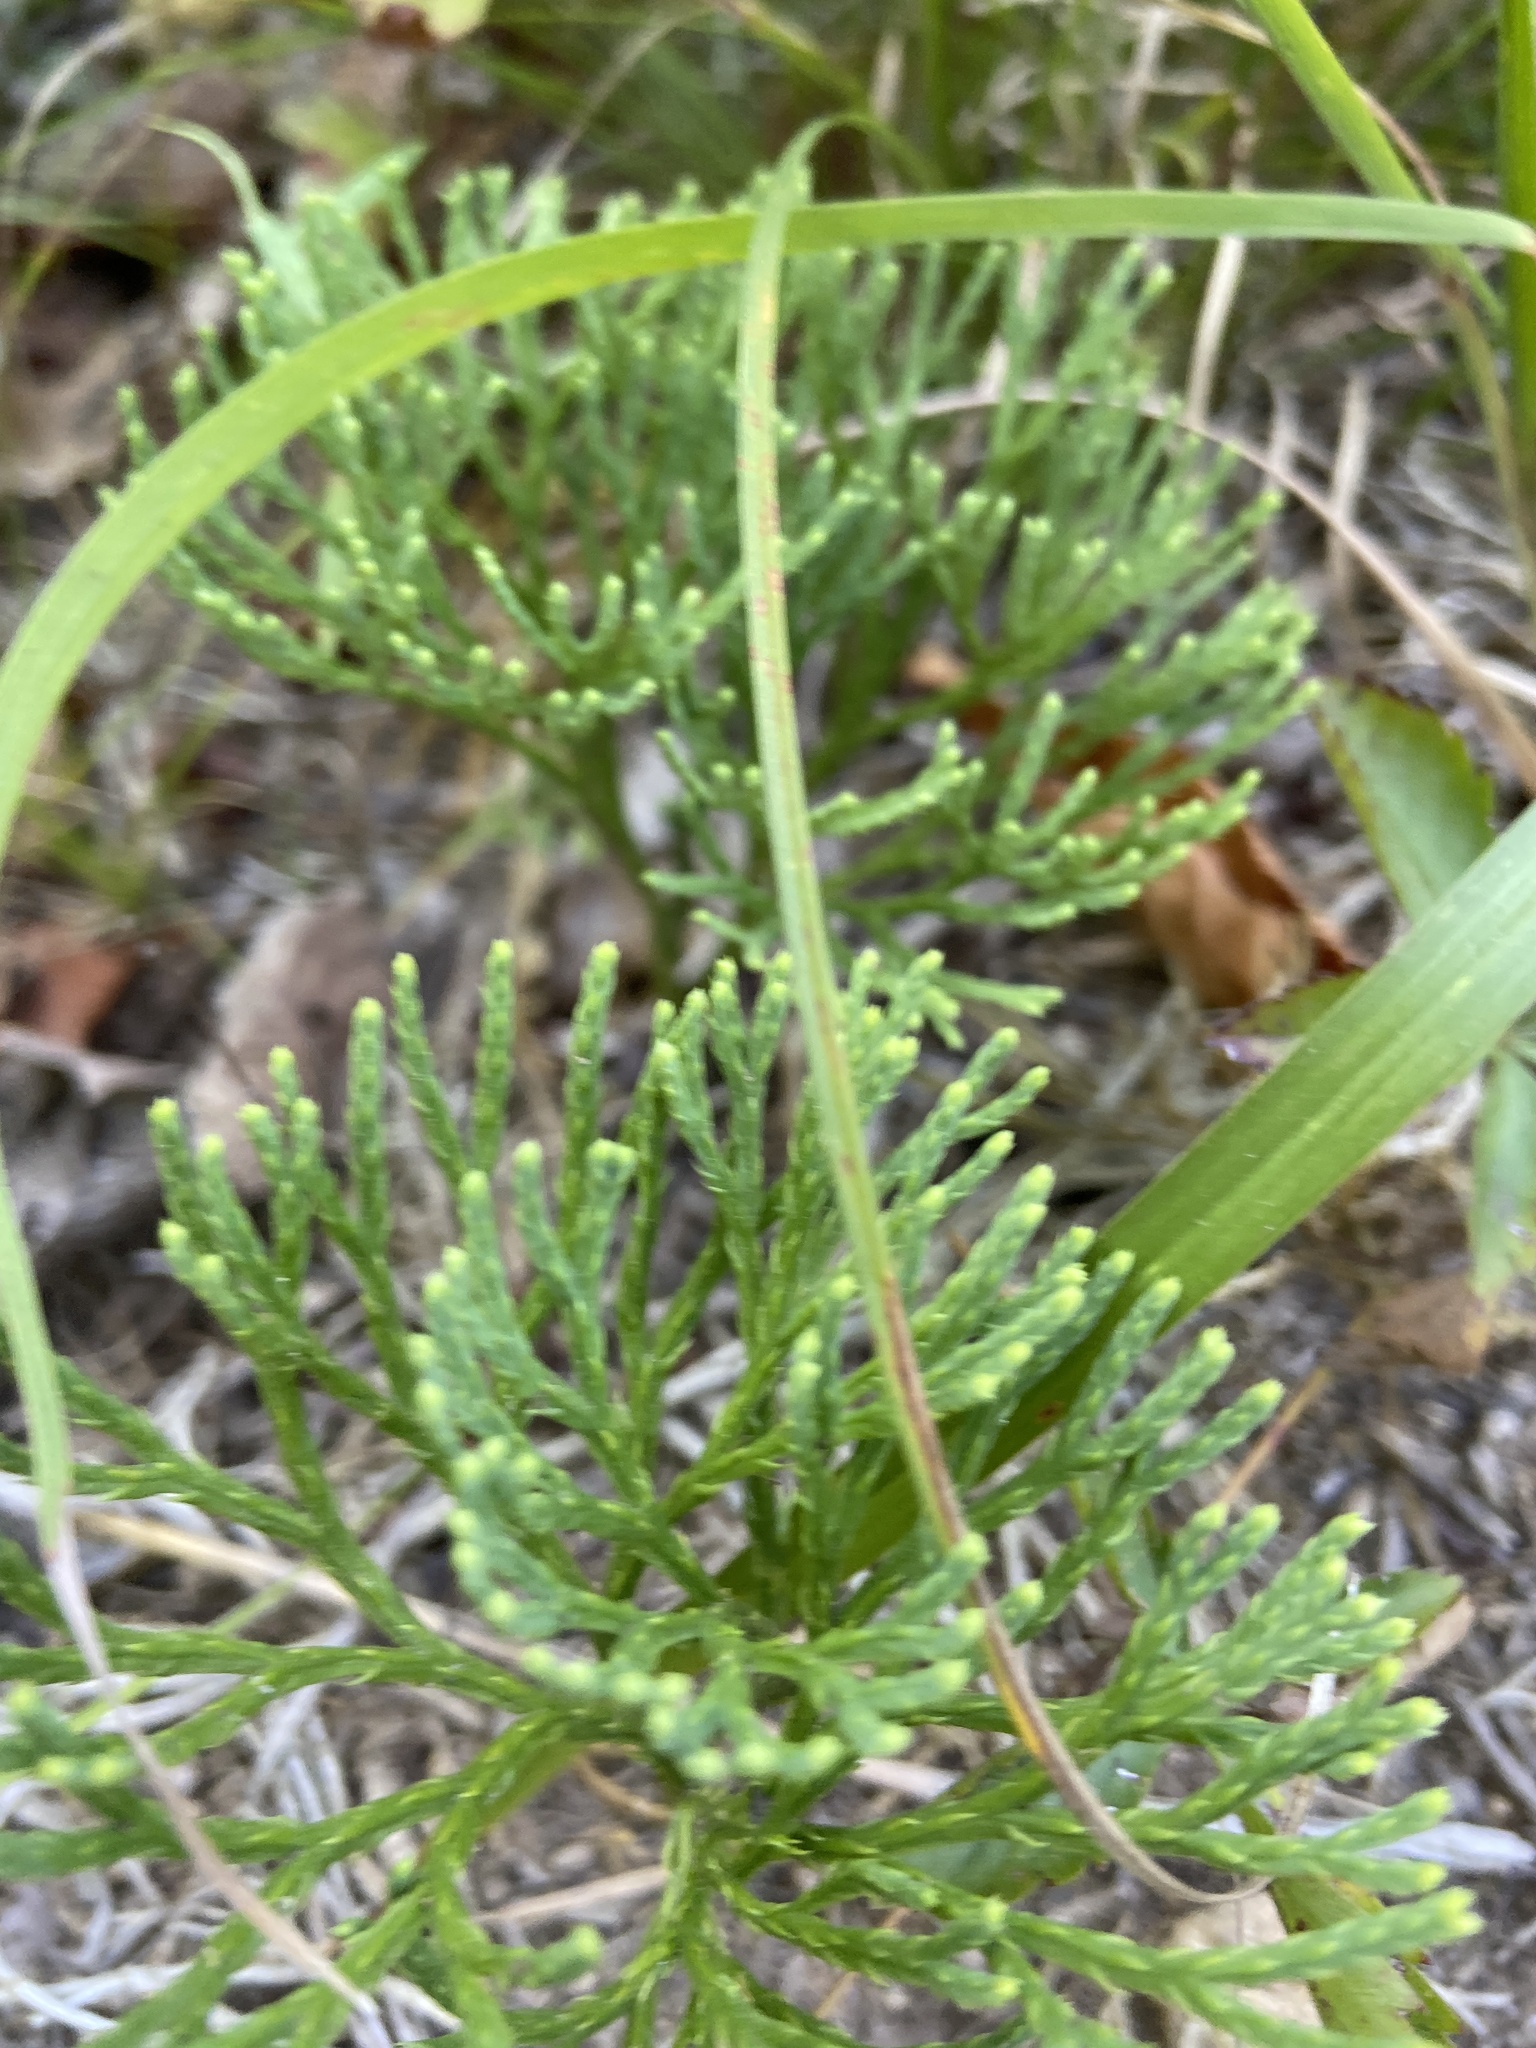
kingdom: Plantae
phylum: Tracheophyta
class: Lycopodiopsida
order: Lycopodiales
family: Lycopodiaceae
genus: Diphasiastrum
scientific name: Diphasiastrum tristachyum
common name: Blue ground-cedar
